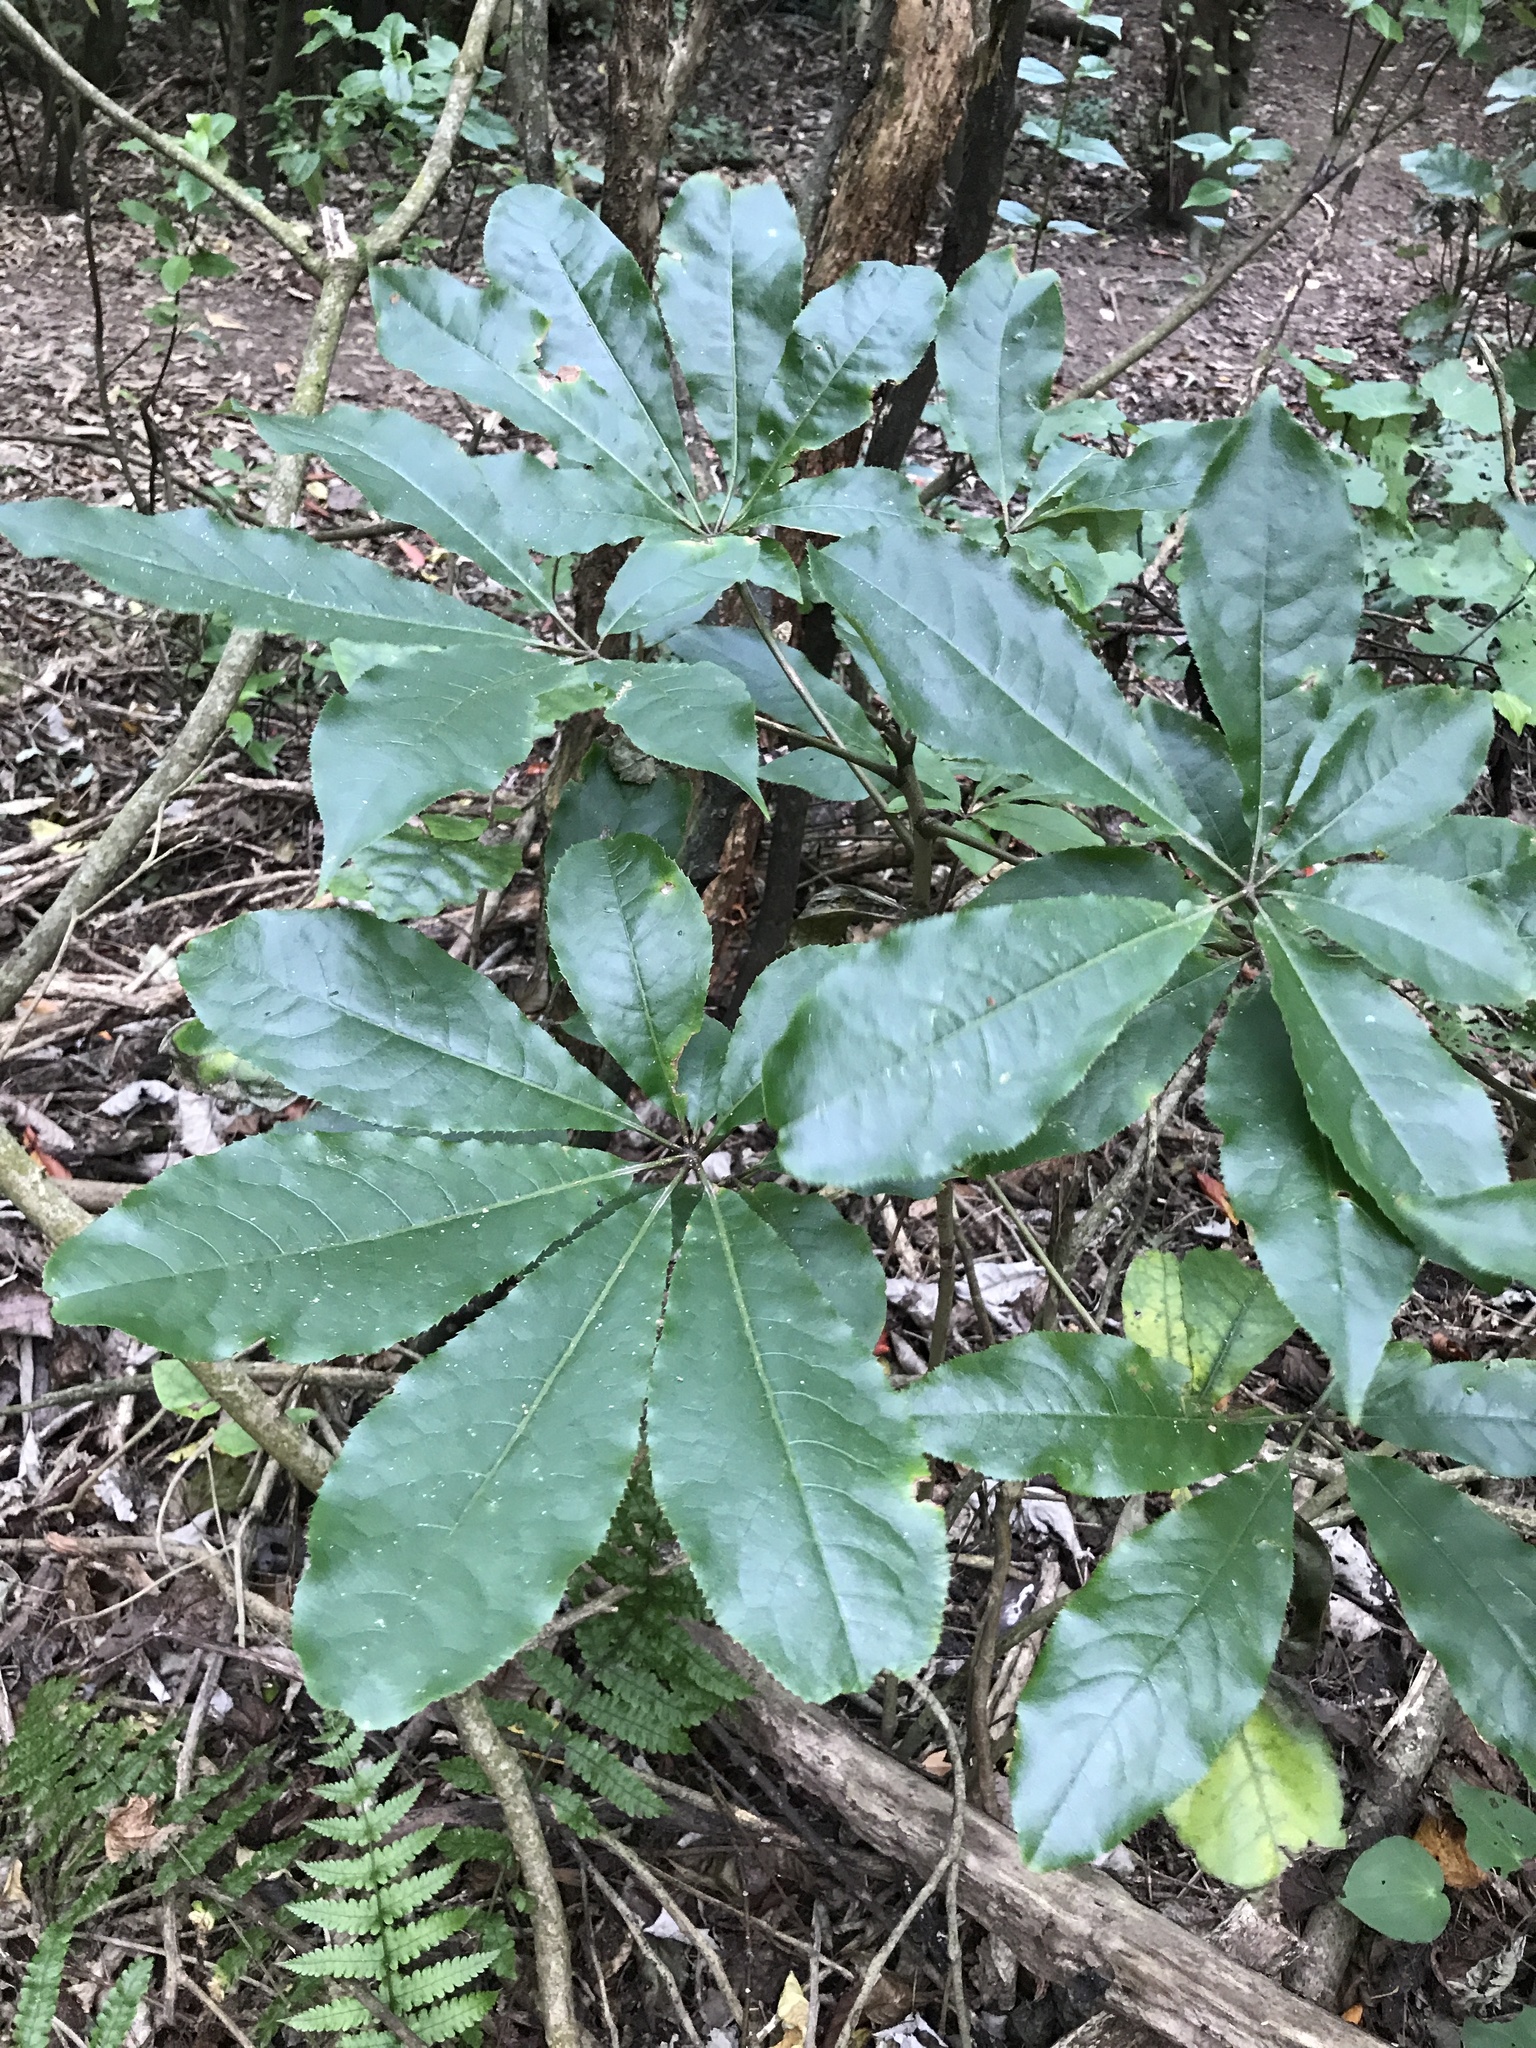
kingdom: Plantae
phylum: Tracheophyta
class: Magnoliopsida
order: Apiales
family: Araliaceae
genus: Schefflera
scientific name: Schefflera digitata
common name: Pate
